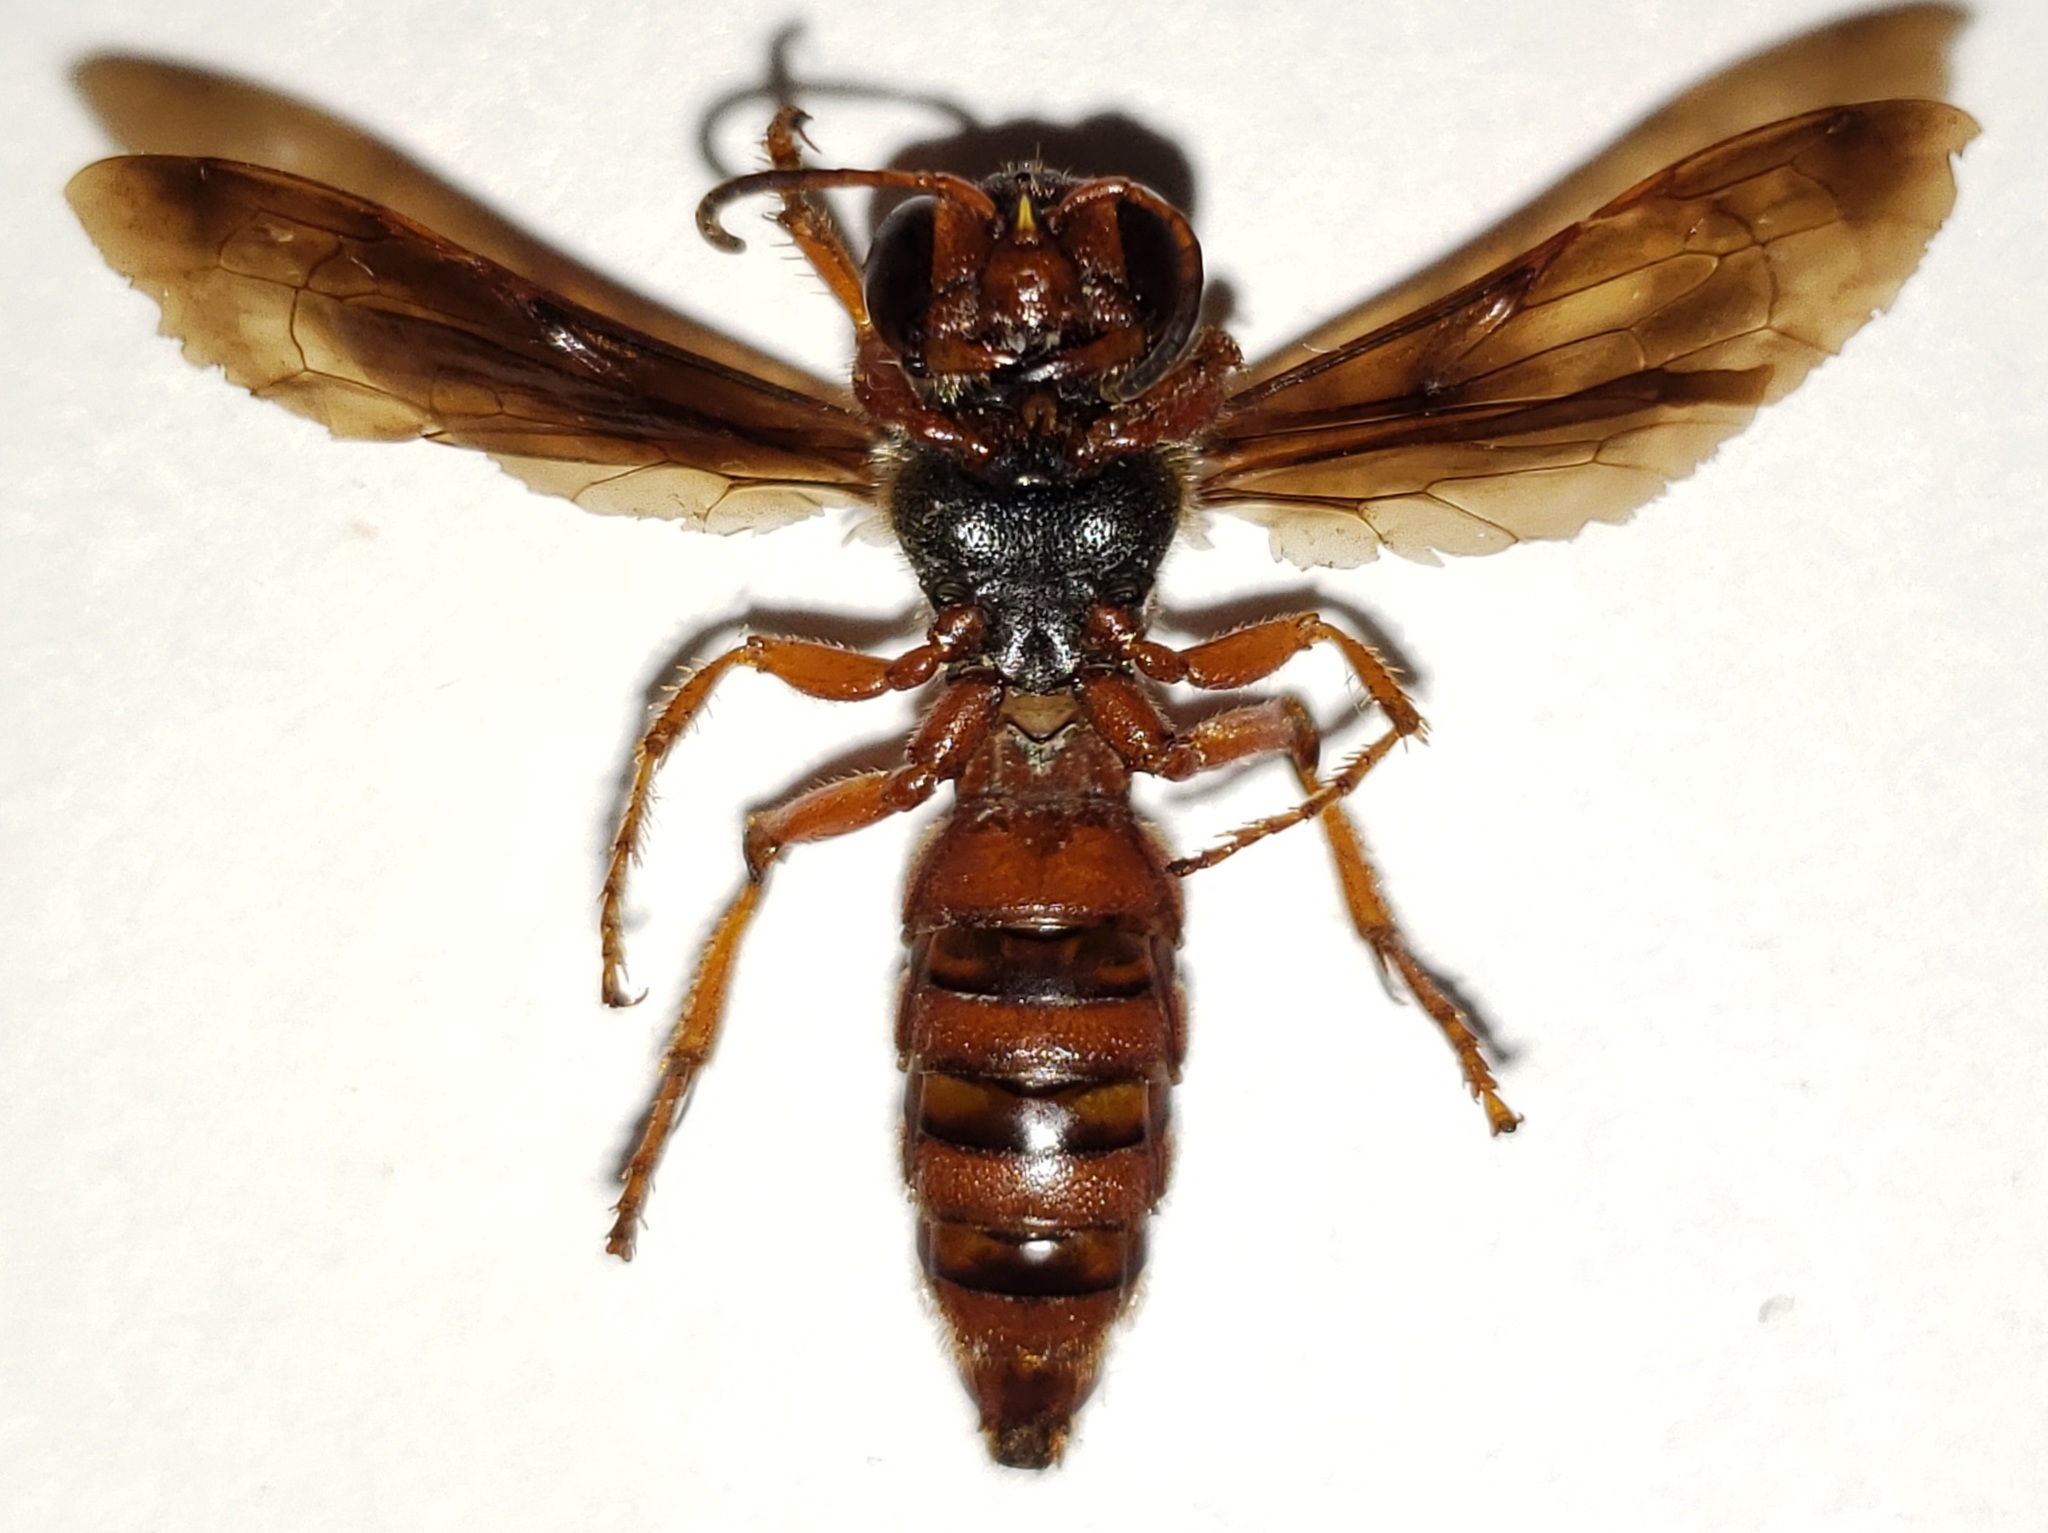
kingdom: Animalia
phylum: Arthropoda
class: Insecta
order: Hymenoptera
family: Crabronidae
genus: Cerceris
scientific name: Cerceris bicornuta
